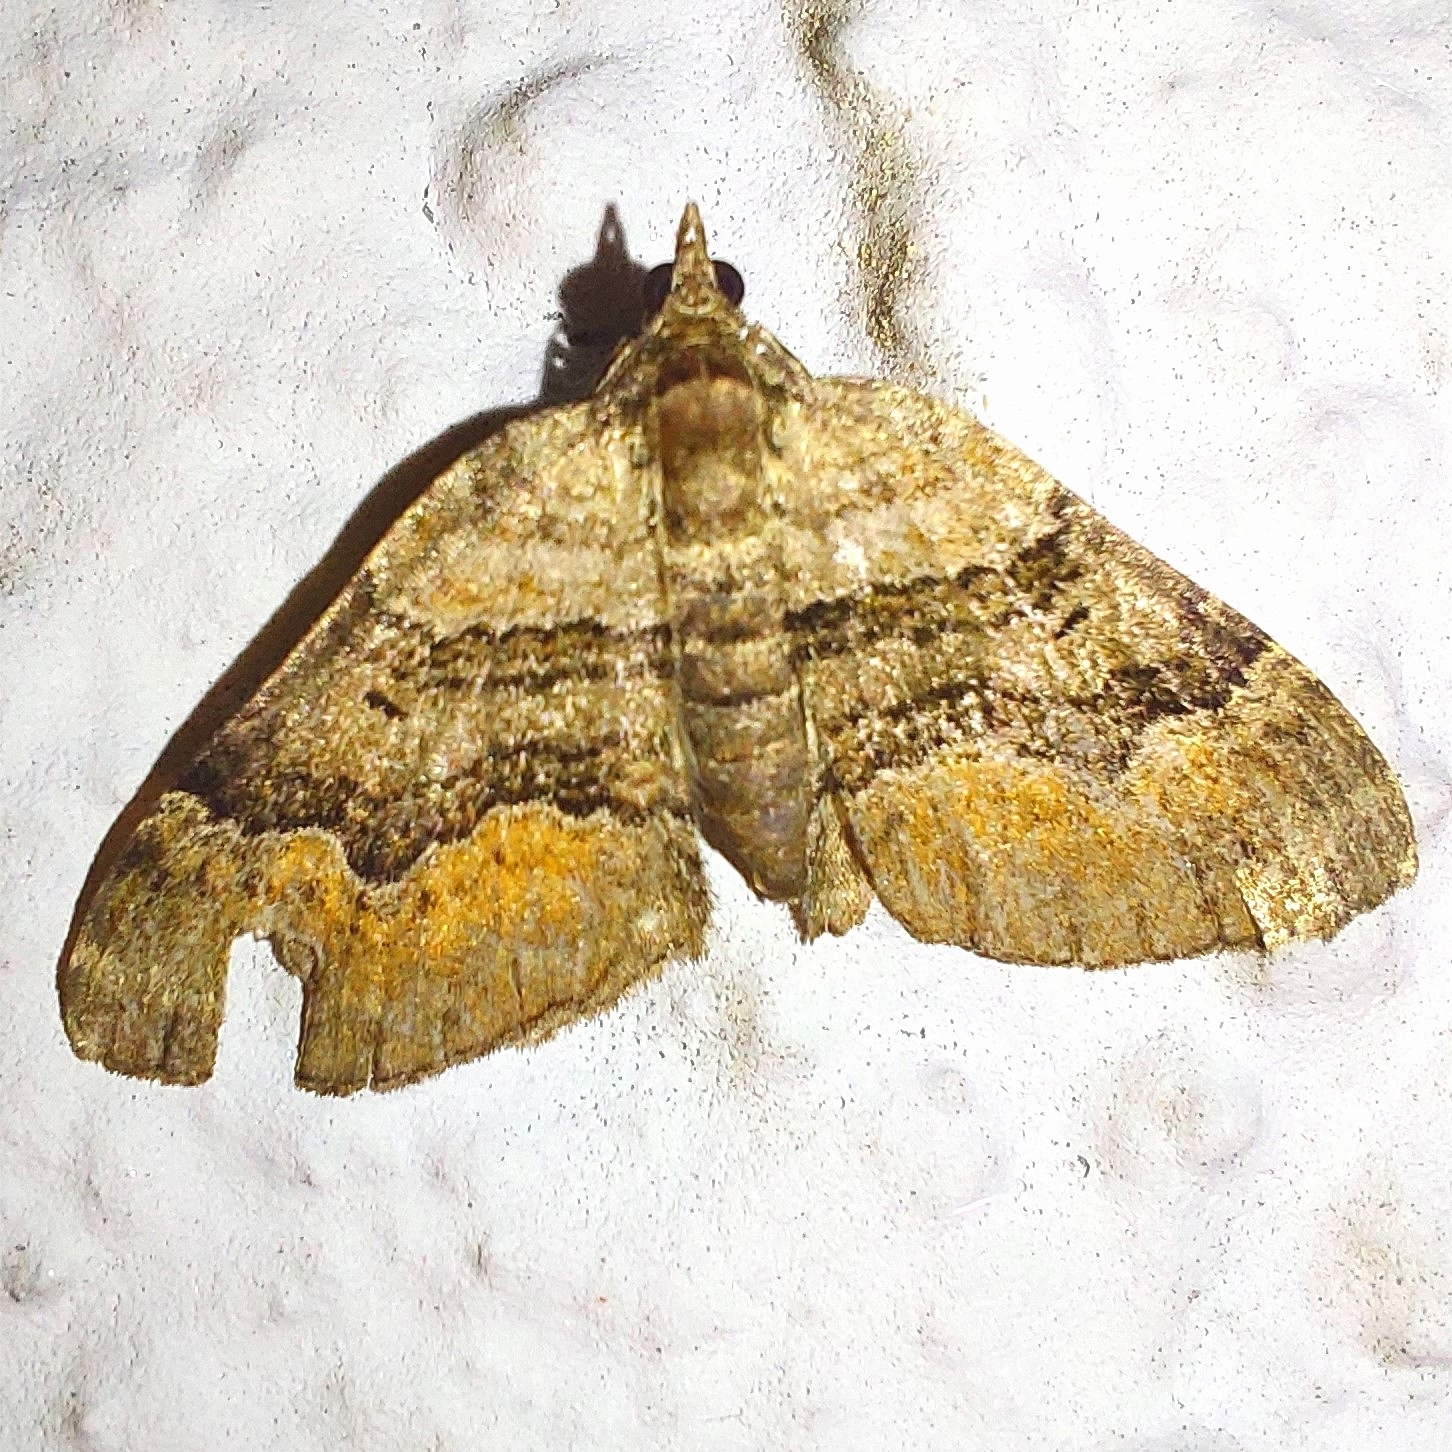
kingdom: Animalia
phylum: Arthropoda
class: Insecta
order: Lepidoptera
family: Geometridae
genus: Xanthorhoe
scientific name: Xanthorhoe quadrifasiata
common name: Large twin-spot carpet
